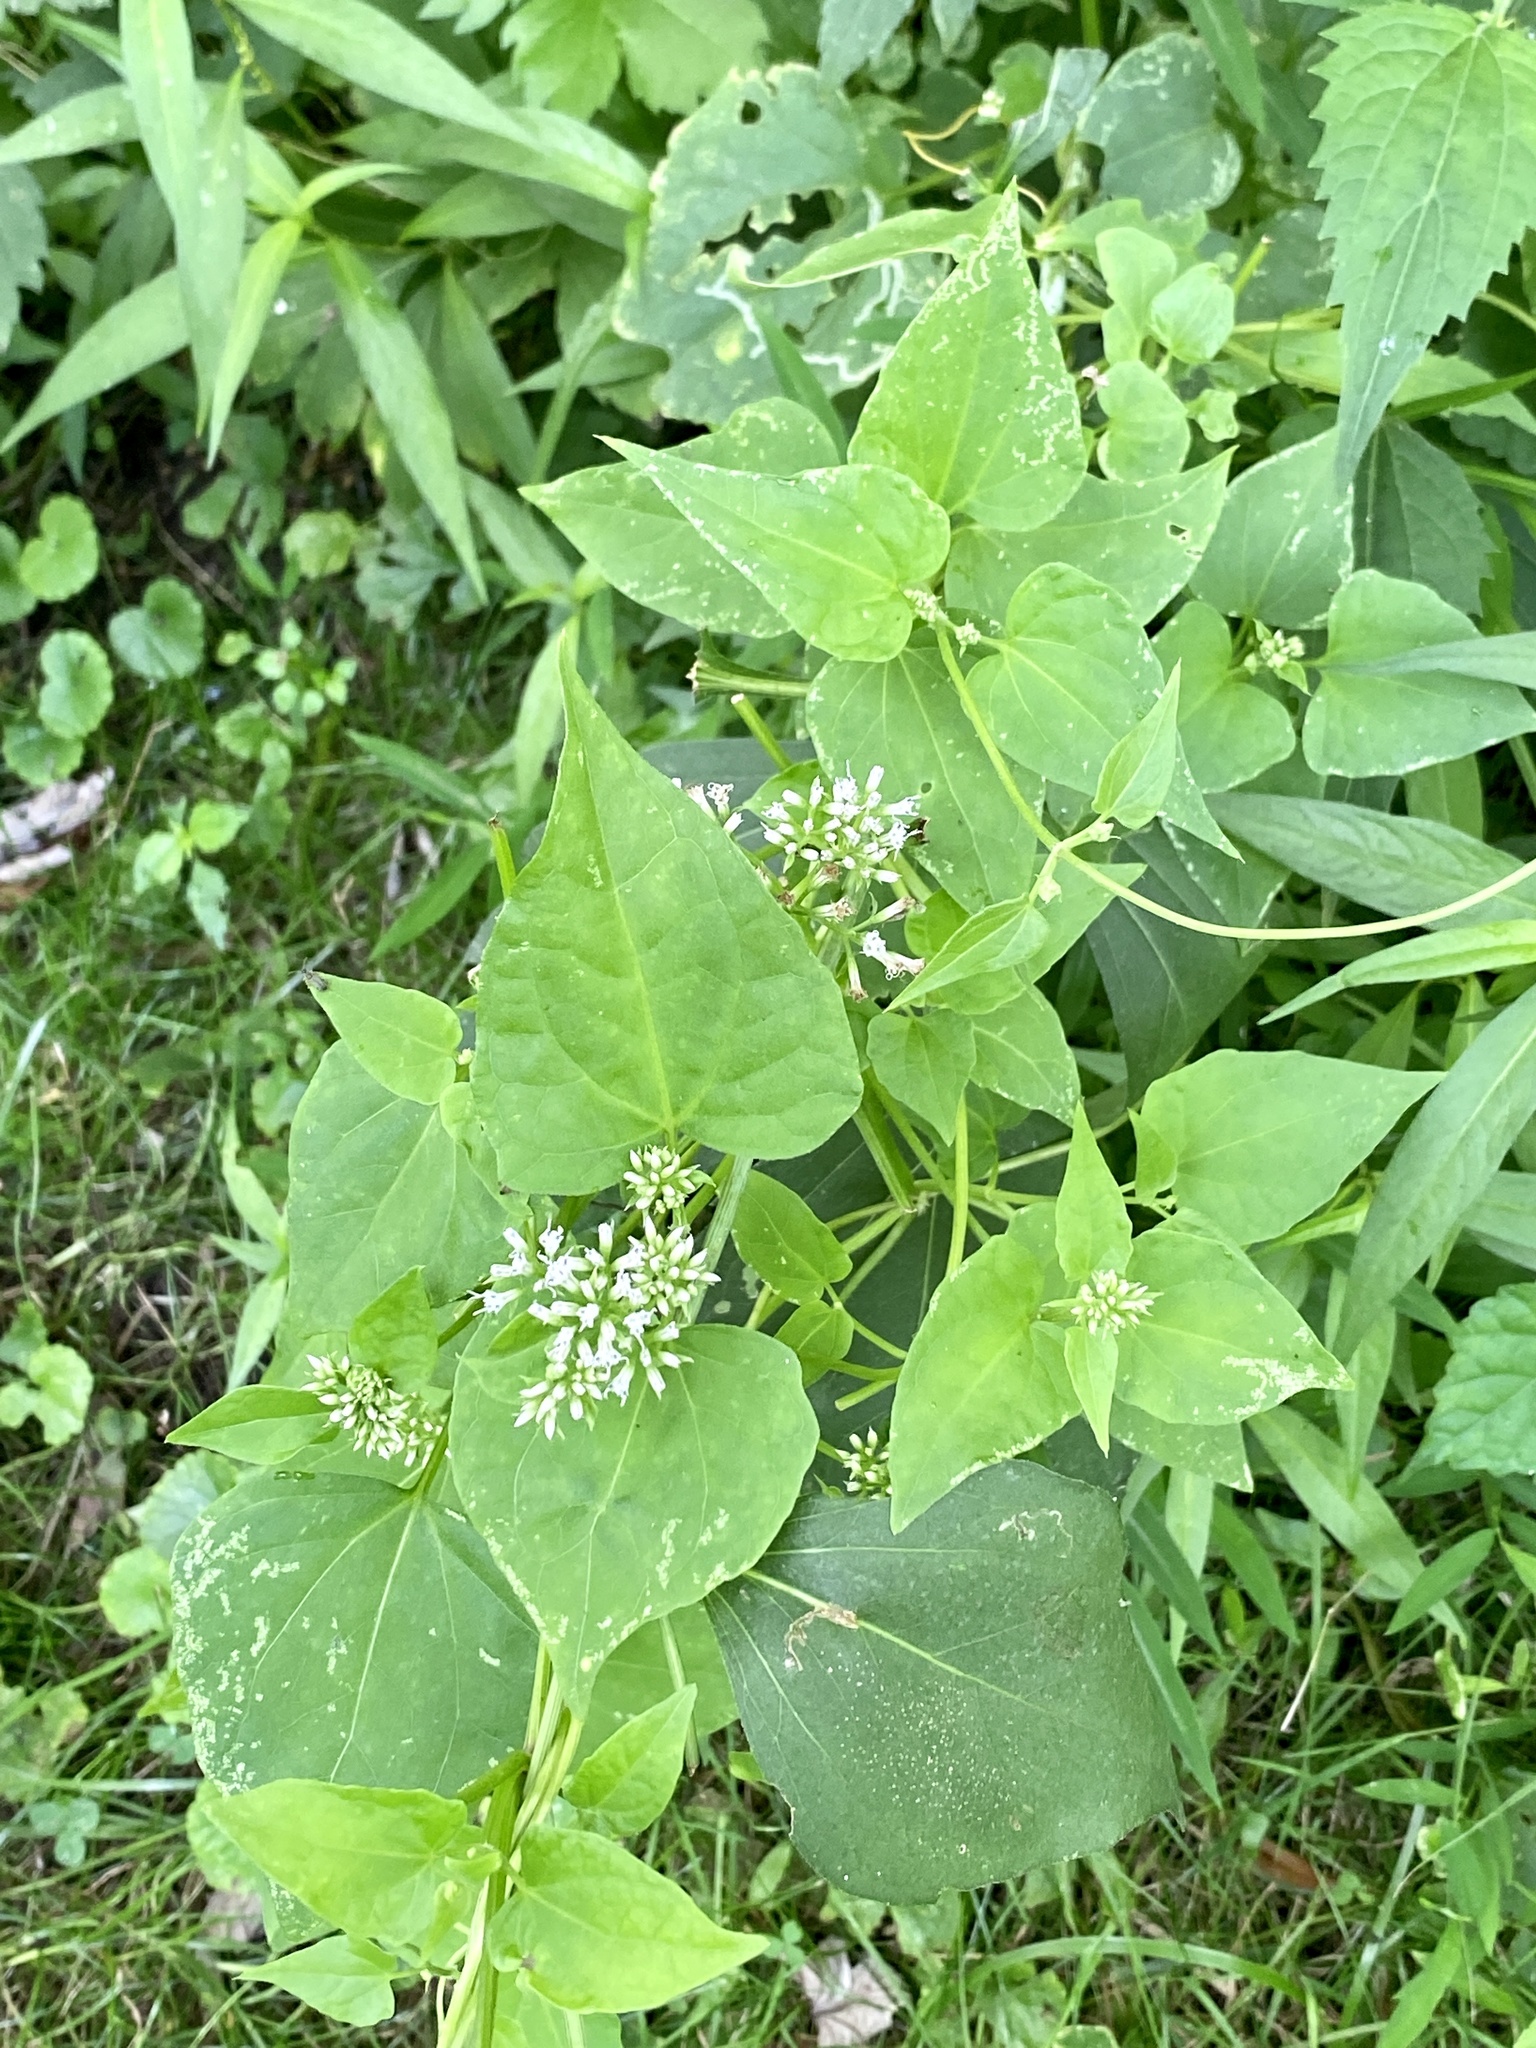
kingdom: Plantae
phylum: Tracheophyta
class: Magnoliopsida
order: Asterales
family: Asteraceae
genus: Mikania
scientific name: Mikania scandens
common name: Climbing hempvine
